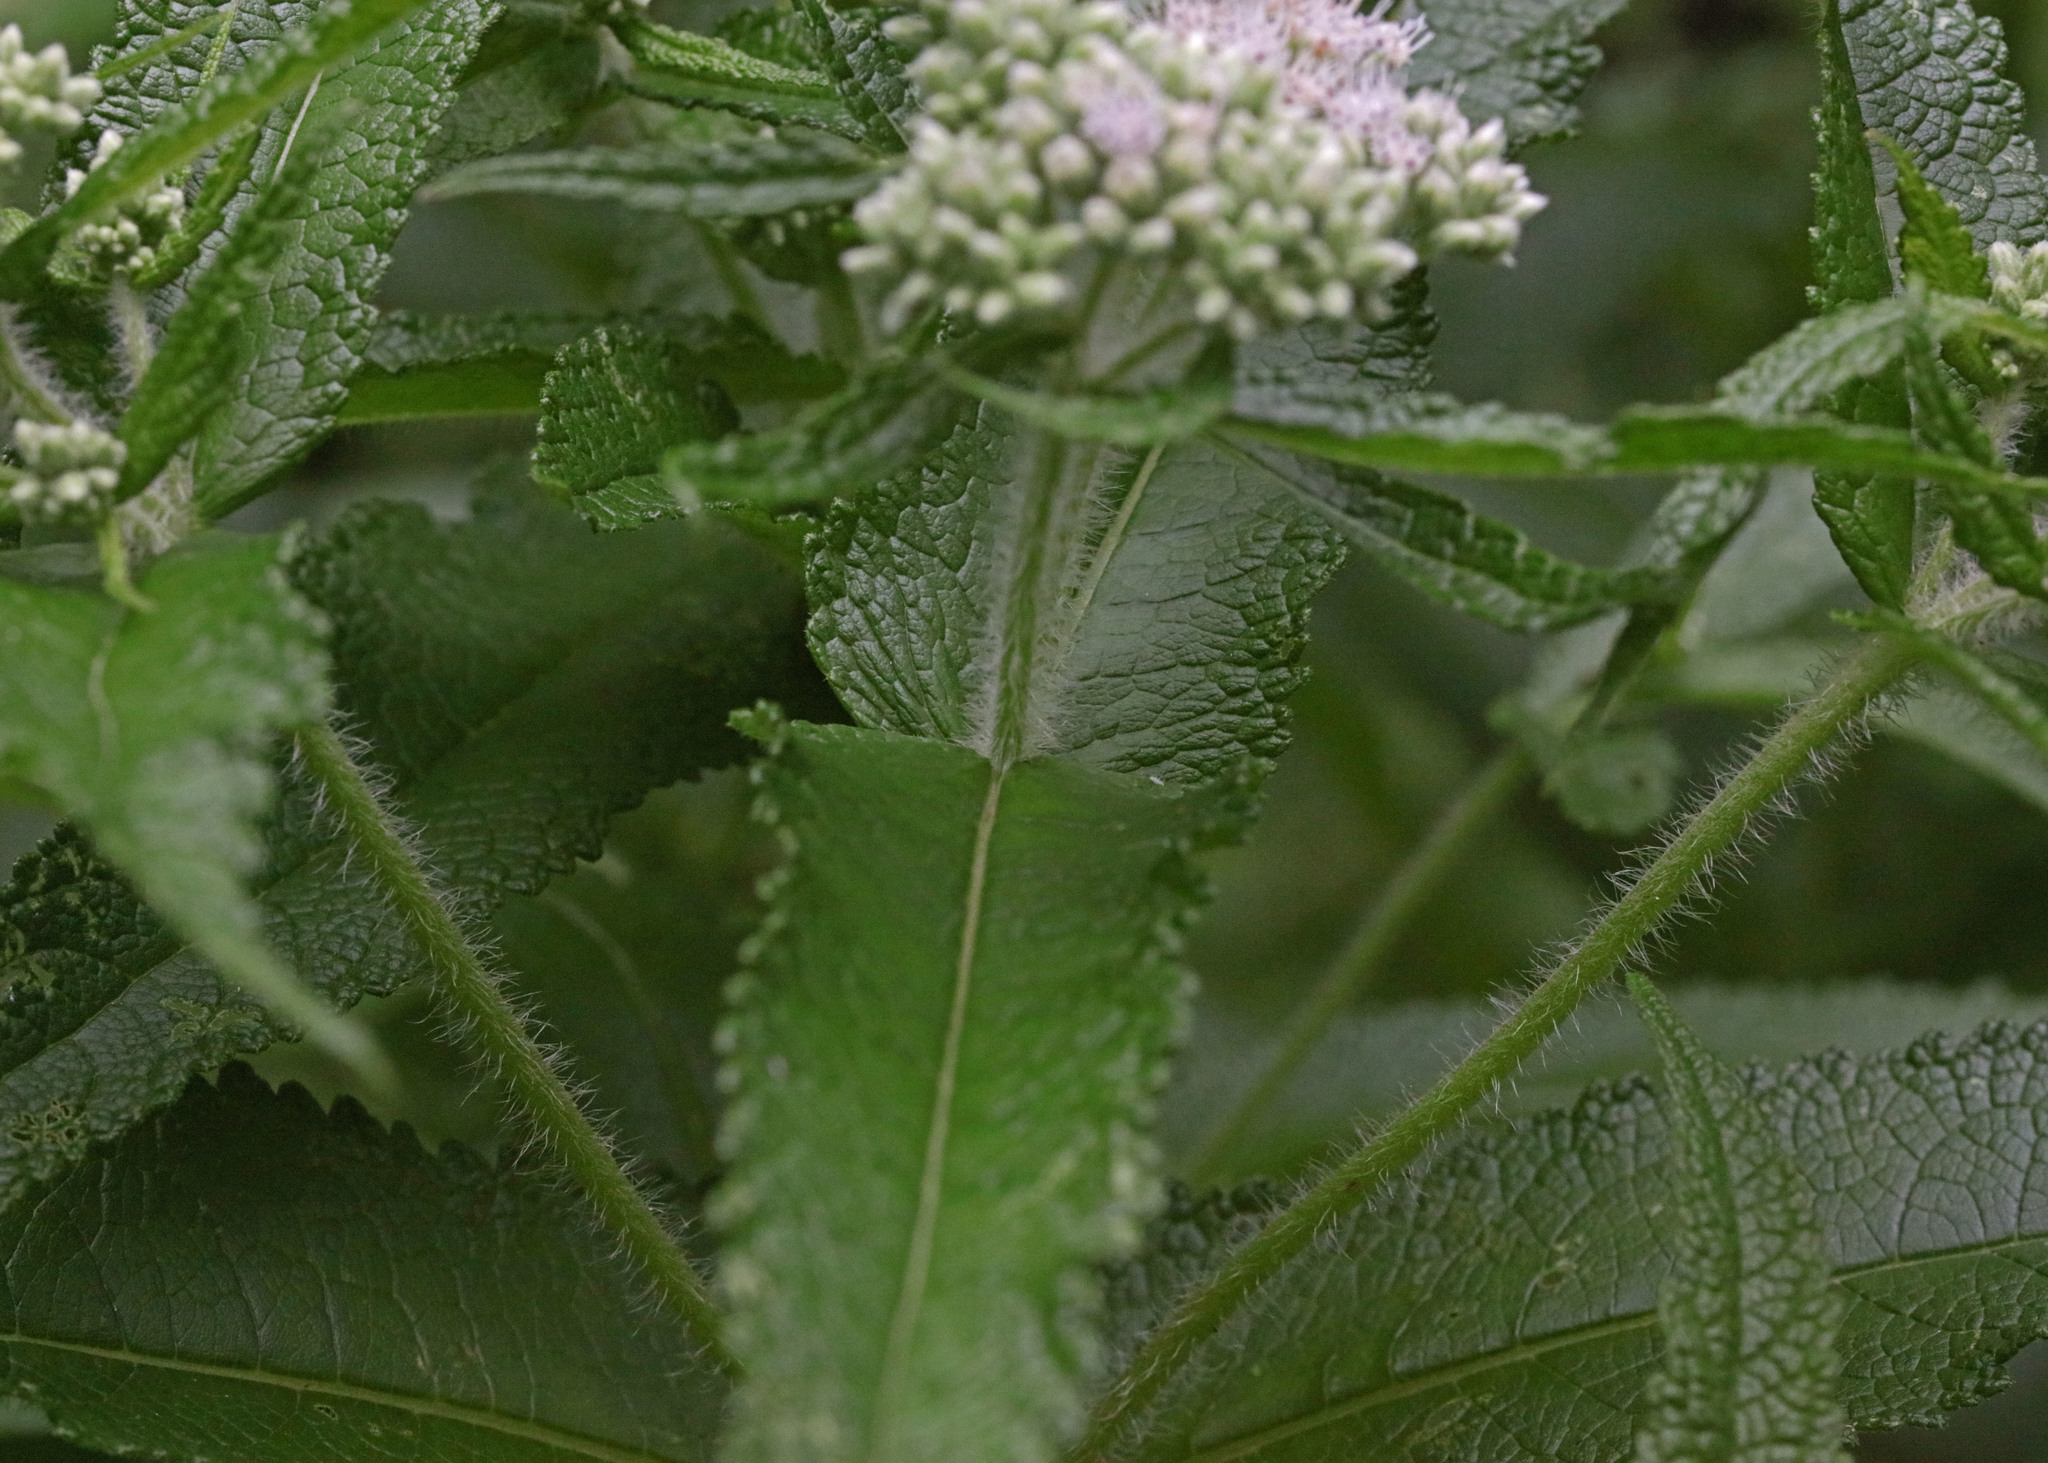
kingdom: Plantae
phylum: Tracheophyta
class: Magnoliopsida
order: Asterales
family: Asteraceae
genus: Eupatorium
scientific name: Eupatorium perfoliatum
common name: Boneset
